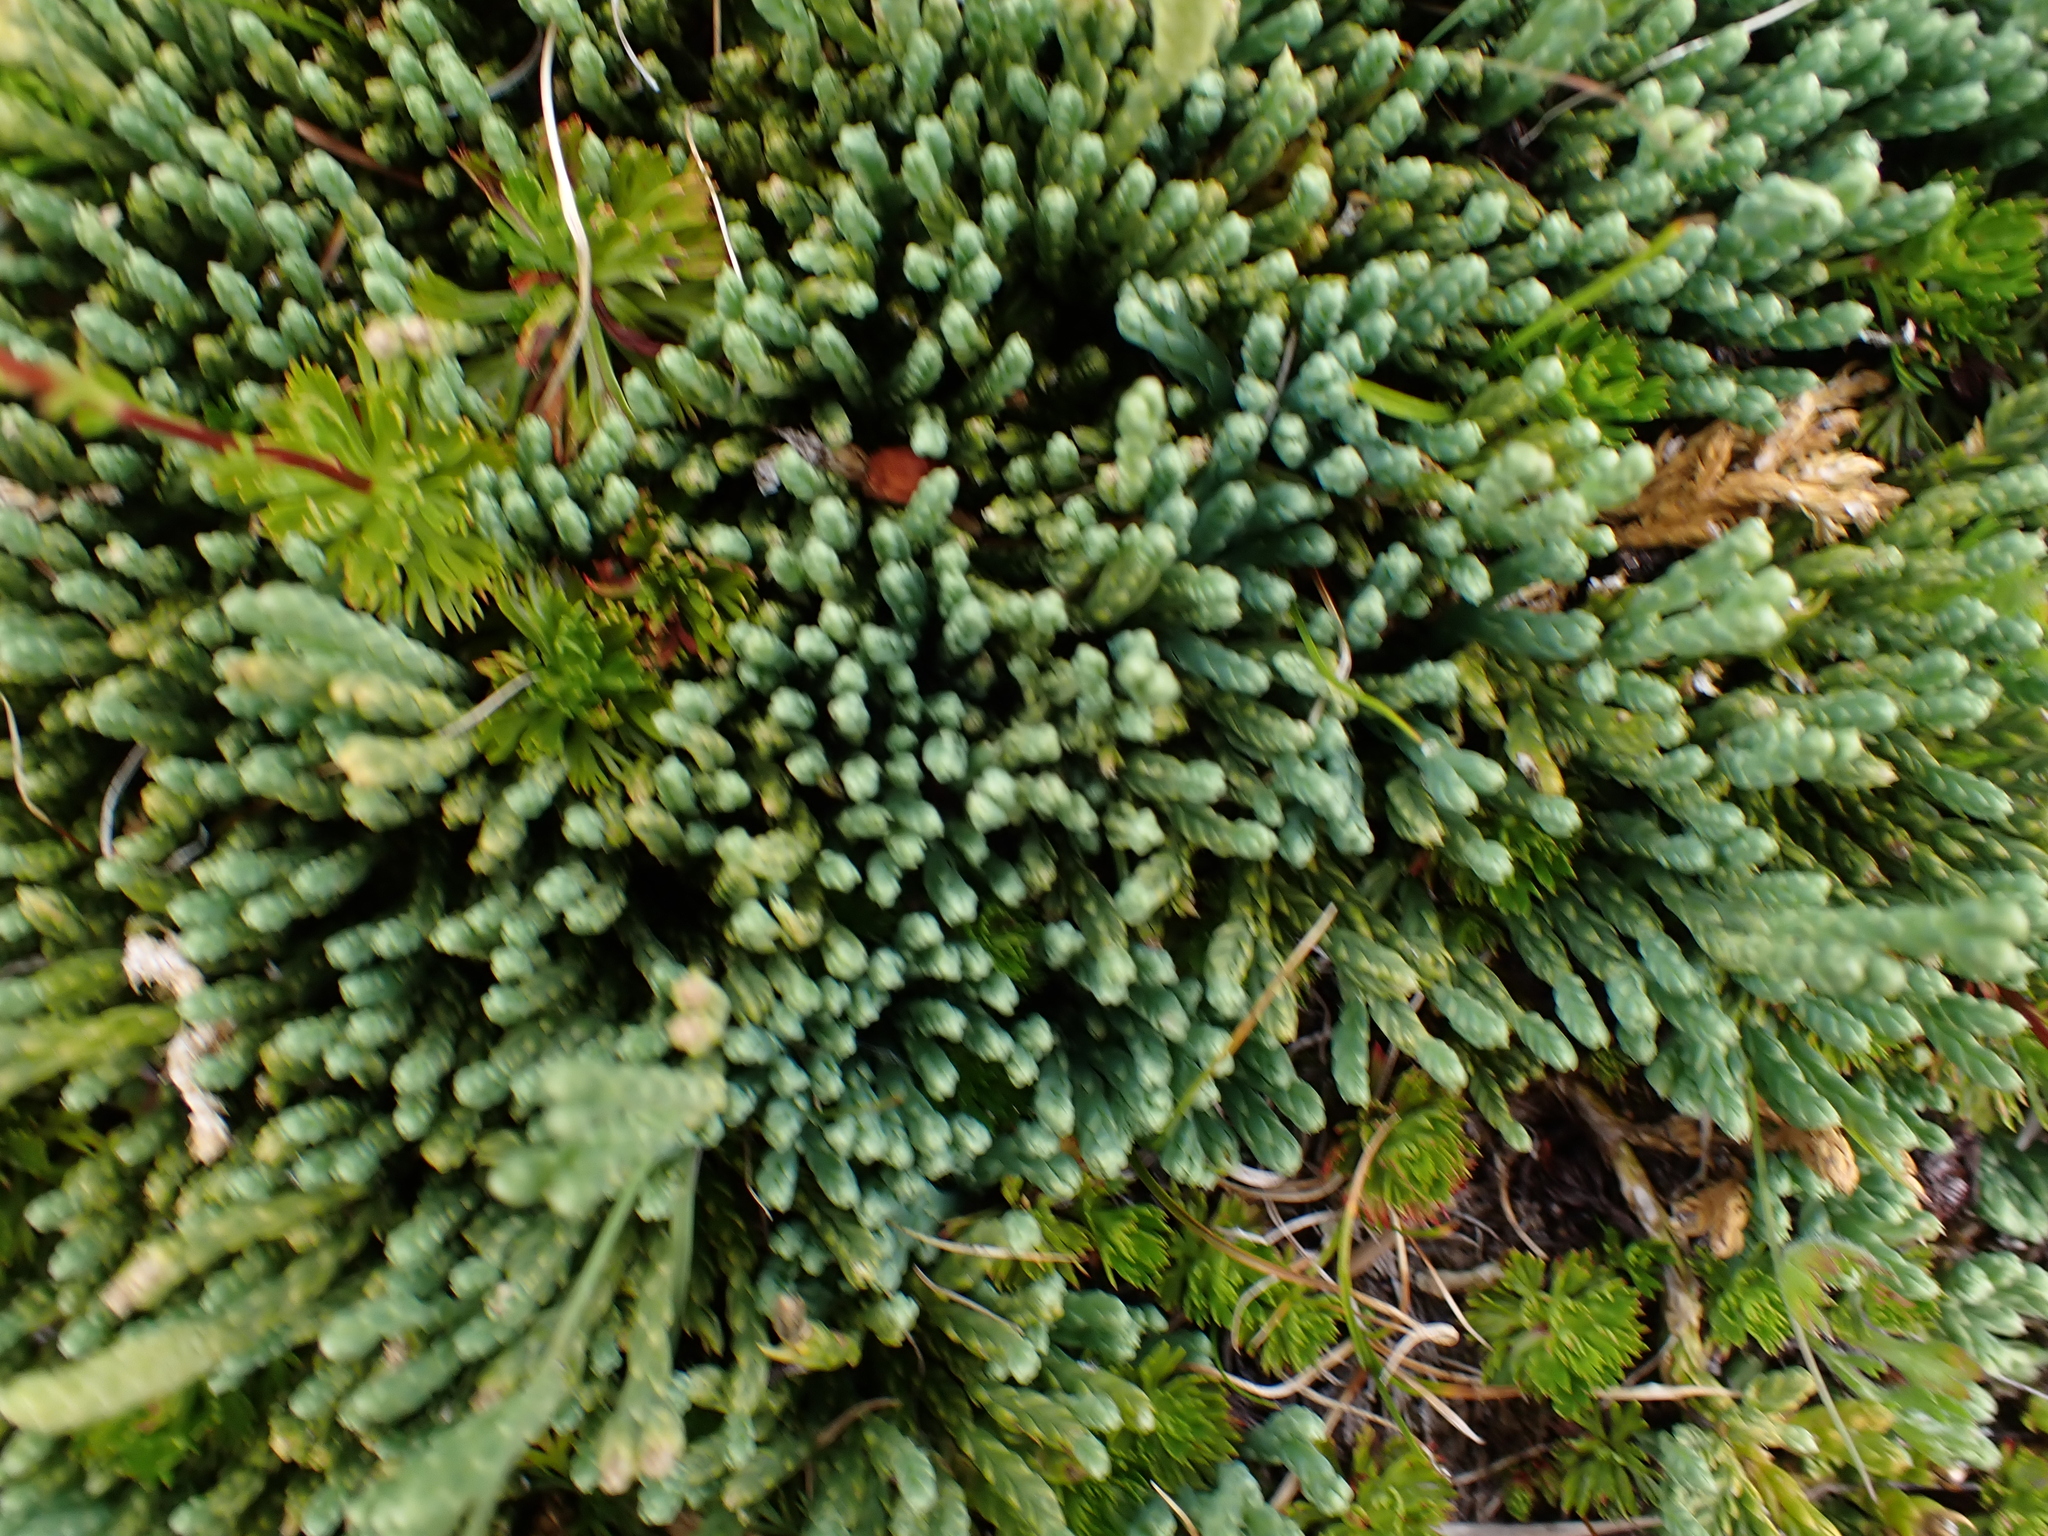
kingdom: Plantae
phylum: Tracheophyta
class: Lycopodiopsida
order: Lycopodiales
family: Lycopodiaceae
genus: Diphasiastrum
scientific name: Diphasiastrum alpinum
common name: Alpine clubmoss
